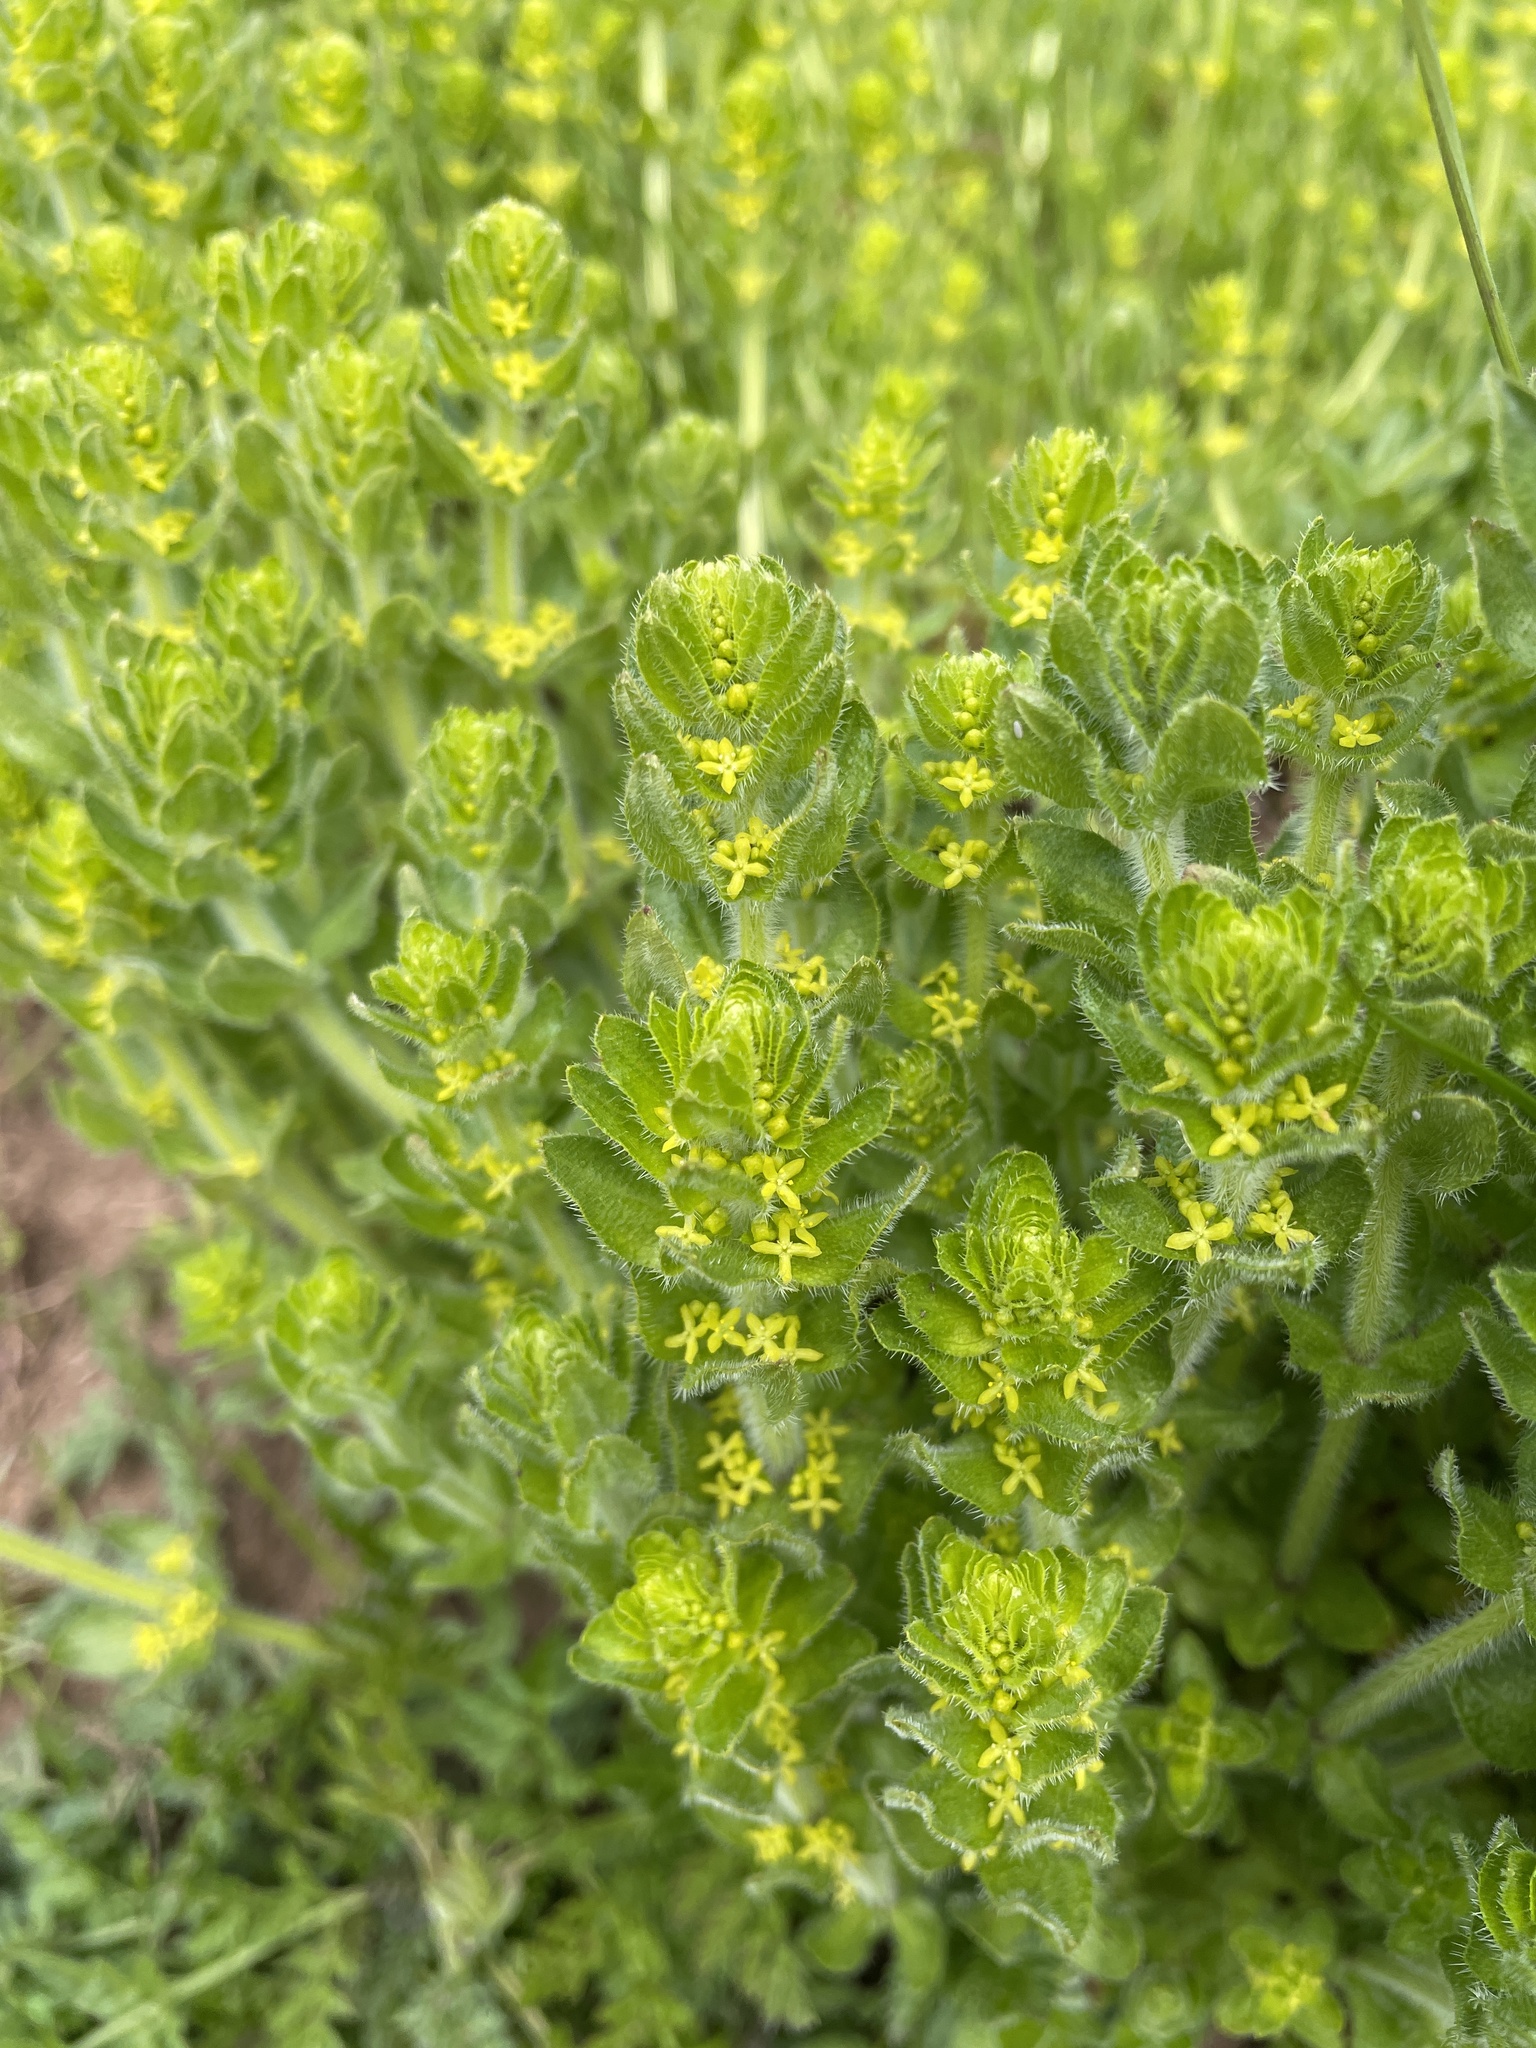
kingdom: Plantae
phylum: Tracheophyta
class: Magnoliopsida
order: Gentianales
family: Rubiaceae
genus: Cruciata
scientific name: Cruciata laevipes
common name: Crosswort
